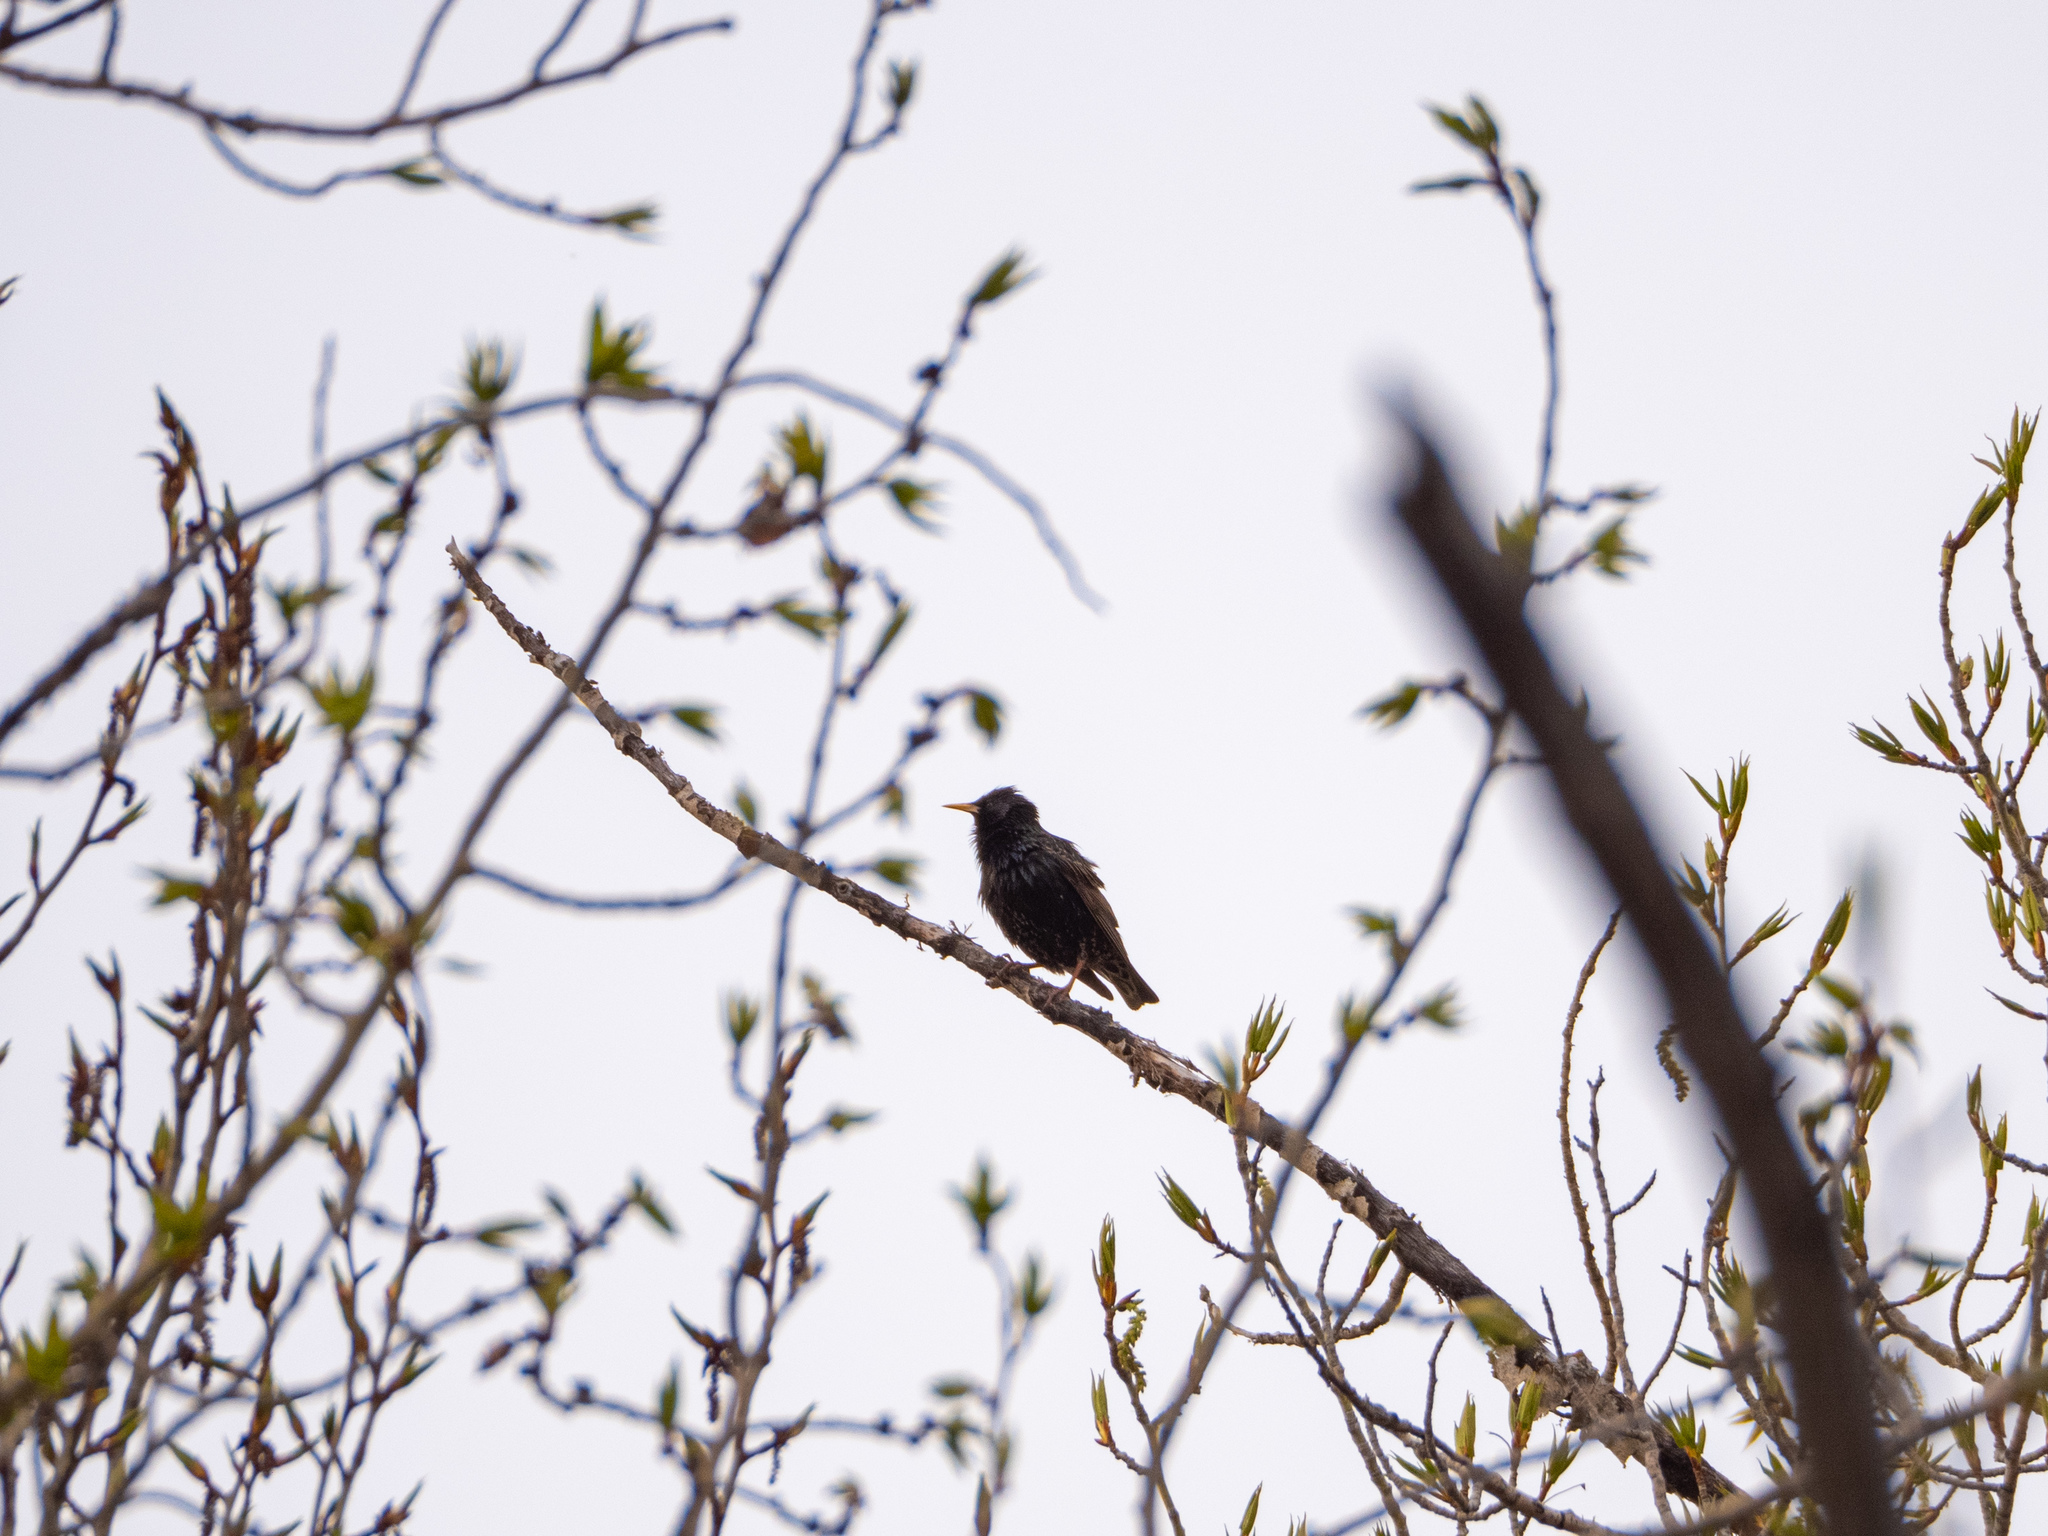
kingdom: Animalia
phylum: Chordata
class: Aves
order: Passeriformes
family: Sturnidae
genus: Sturnus
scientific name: Sturnus vulgaris
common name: Common starling
